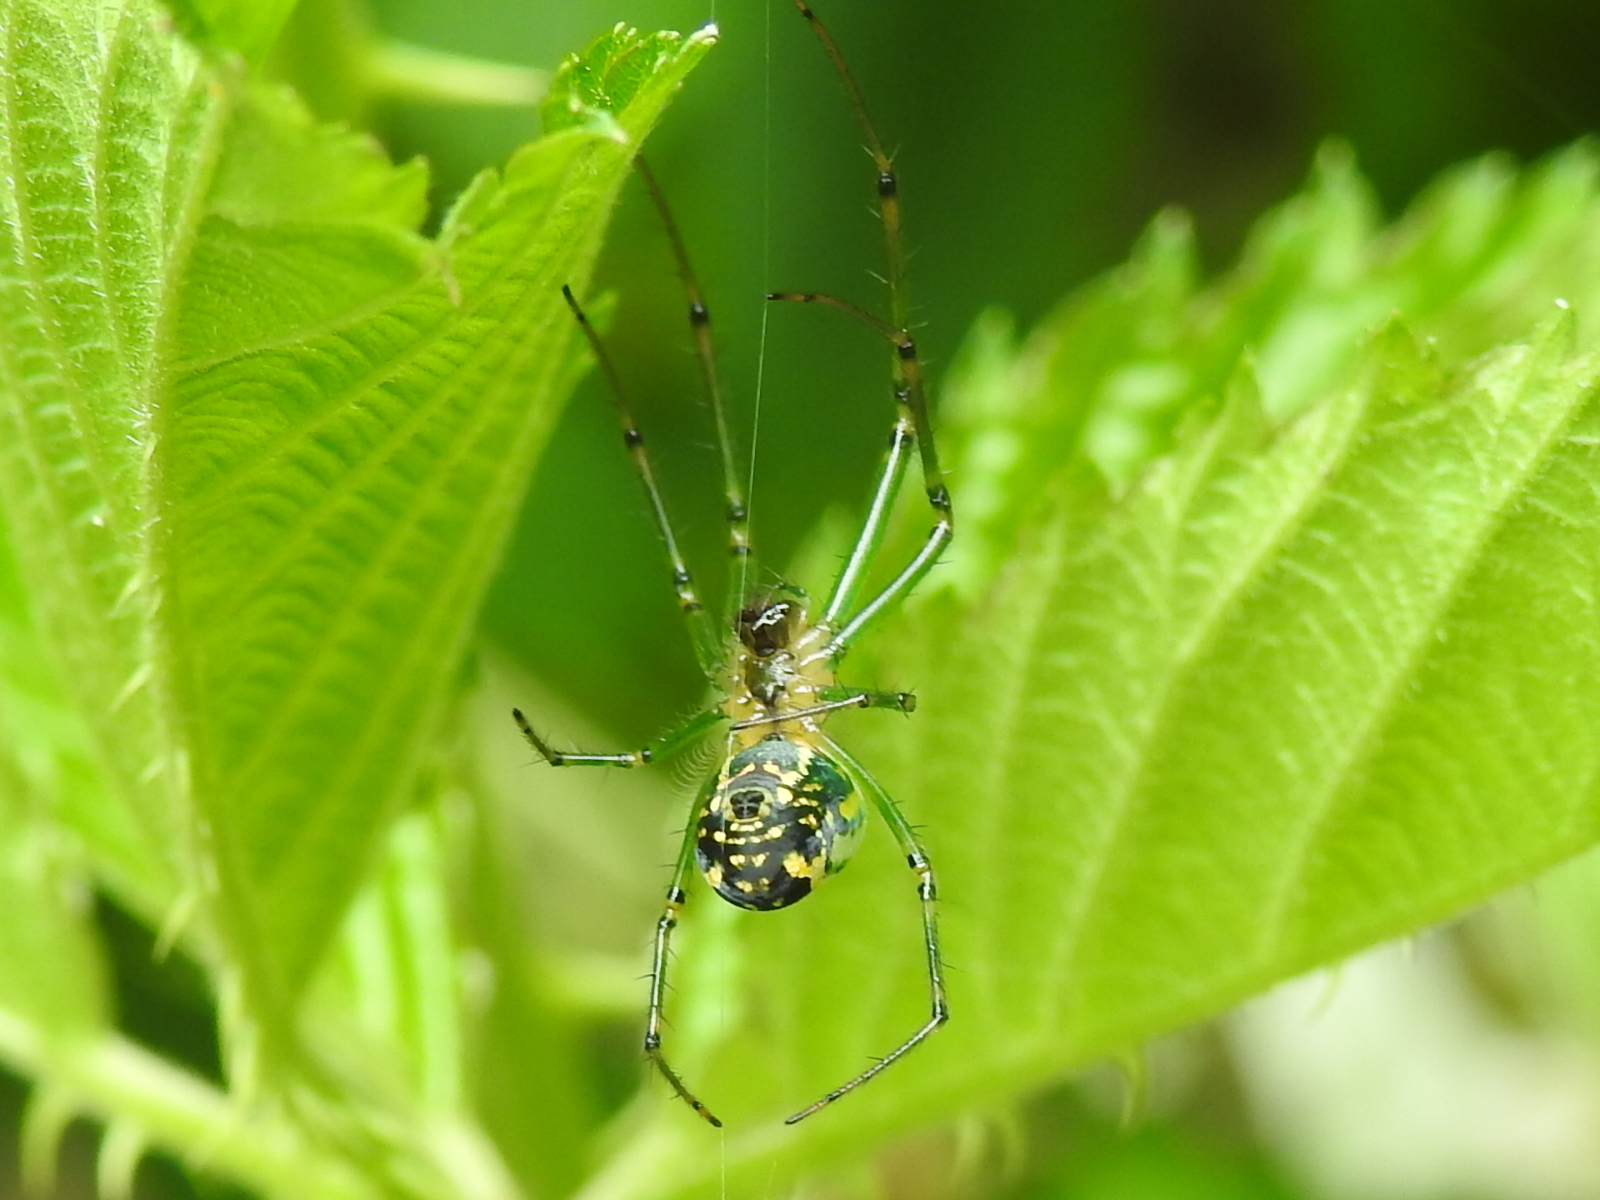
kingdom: Animalia
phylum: Arthropoda
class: Arachnida
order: Araneae
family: Tetragnathidae
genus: Leucauge
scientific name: Leucauge venusta
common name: Longjawed orb weavers
